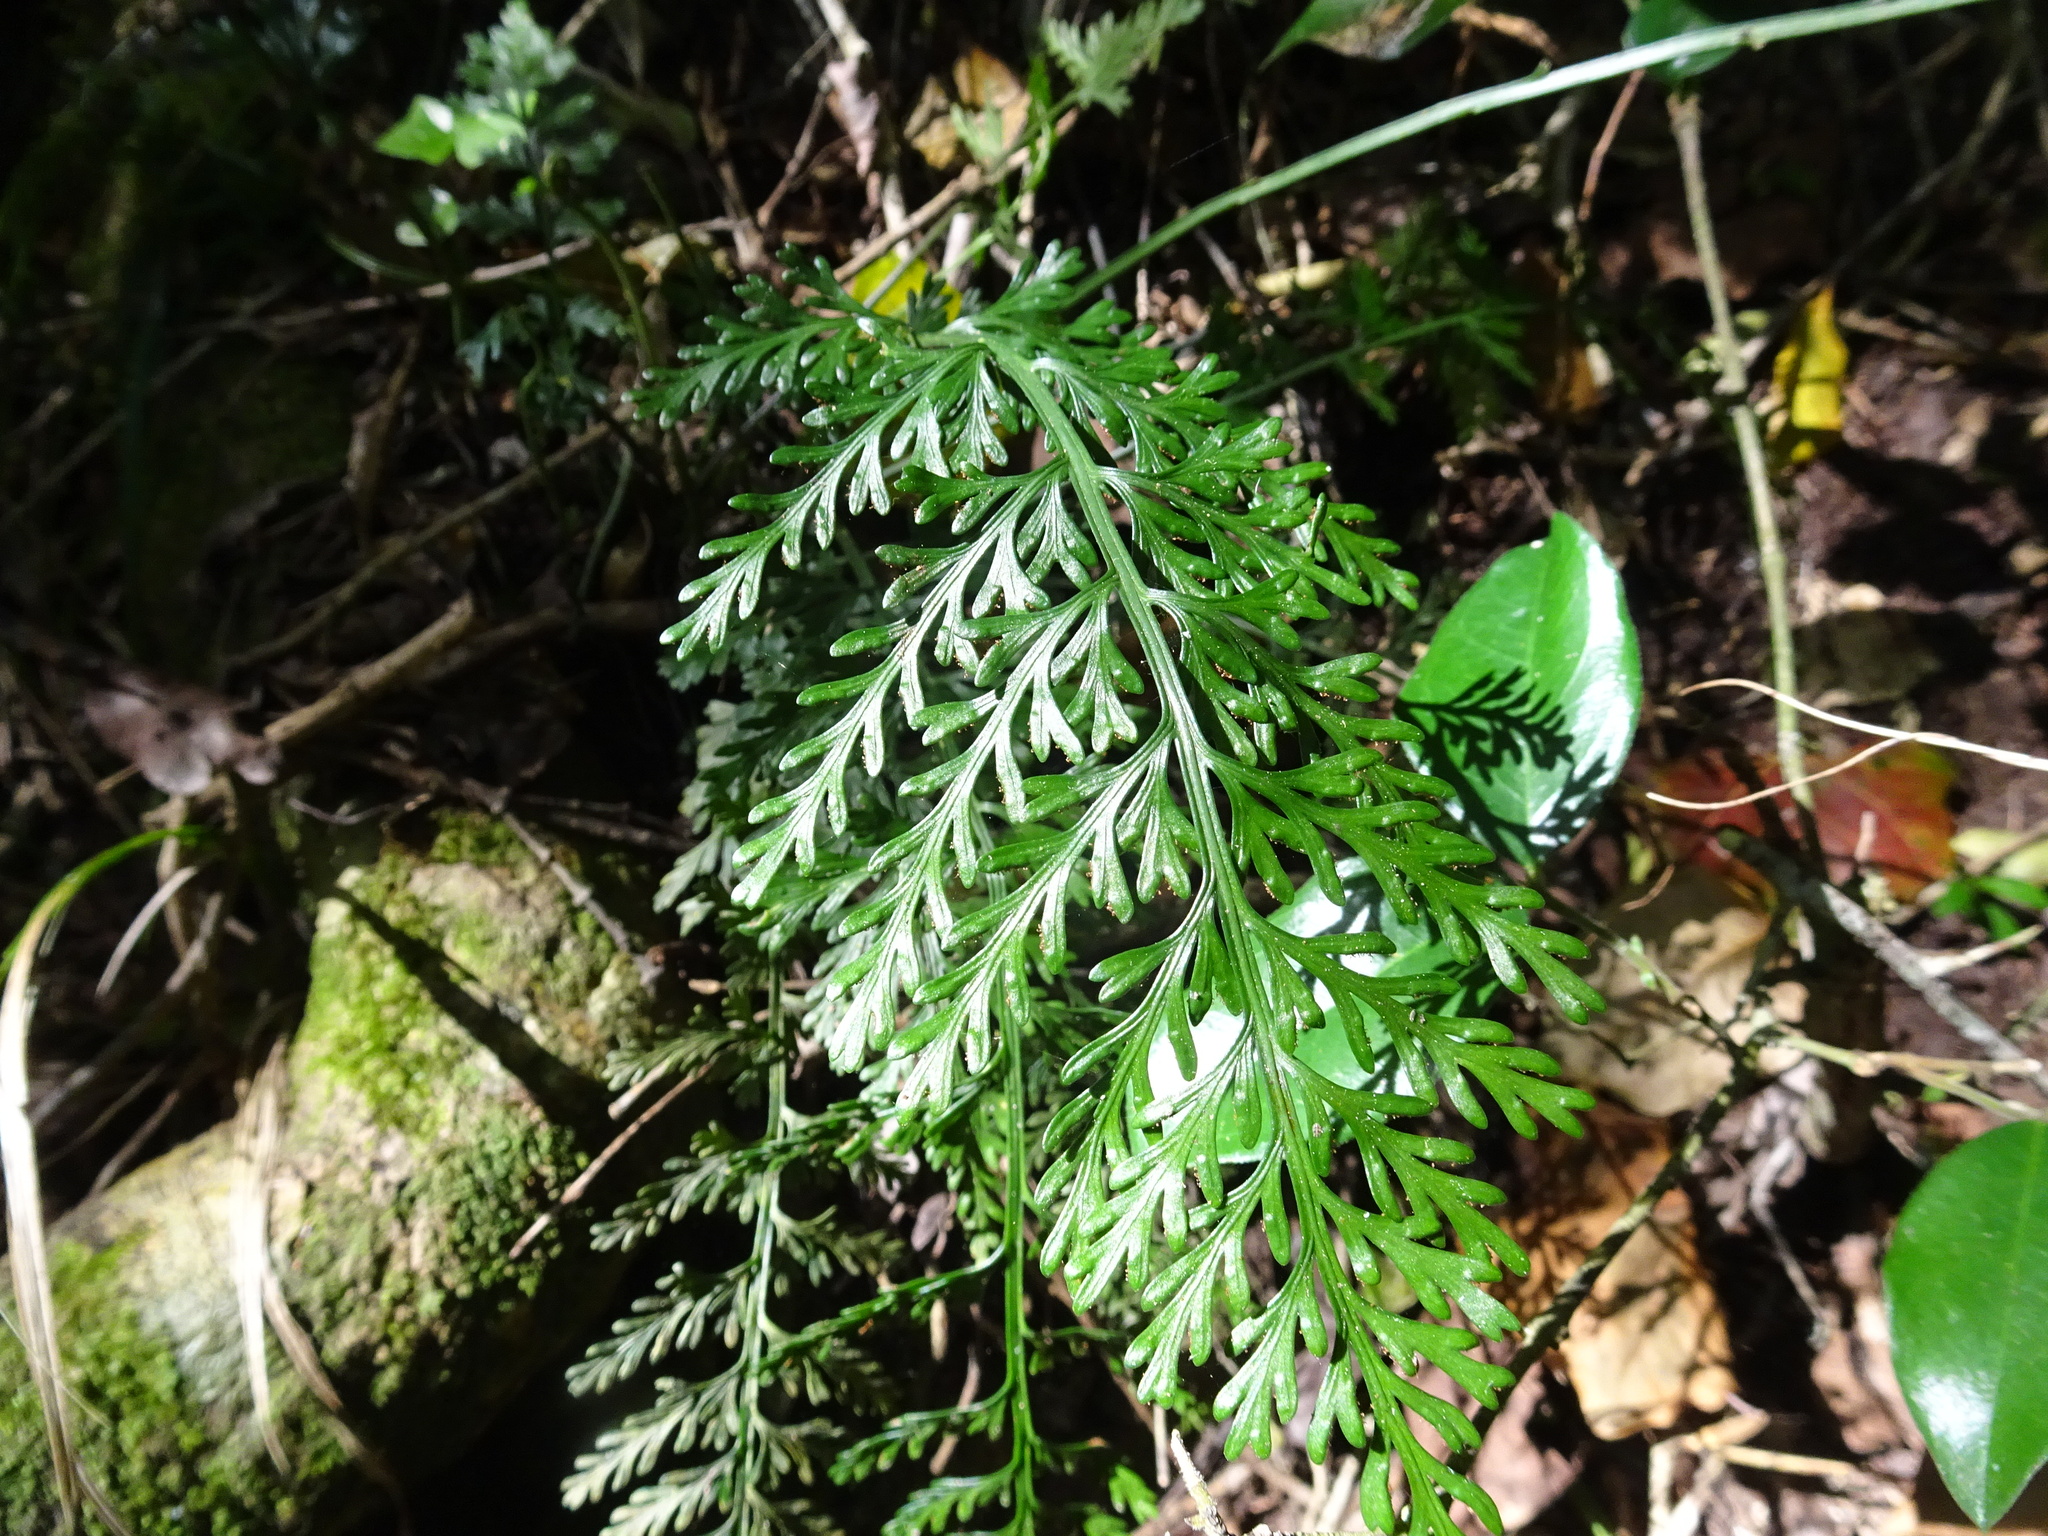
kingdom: Plantae
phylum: Tracheophyta
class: Polypodiopsida
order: Polypodiales
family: Aspleniaceae
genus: Asplenium
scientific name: Asplenium rutifolium
